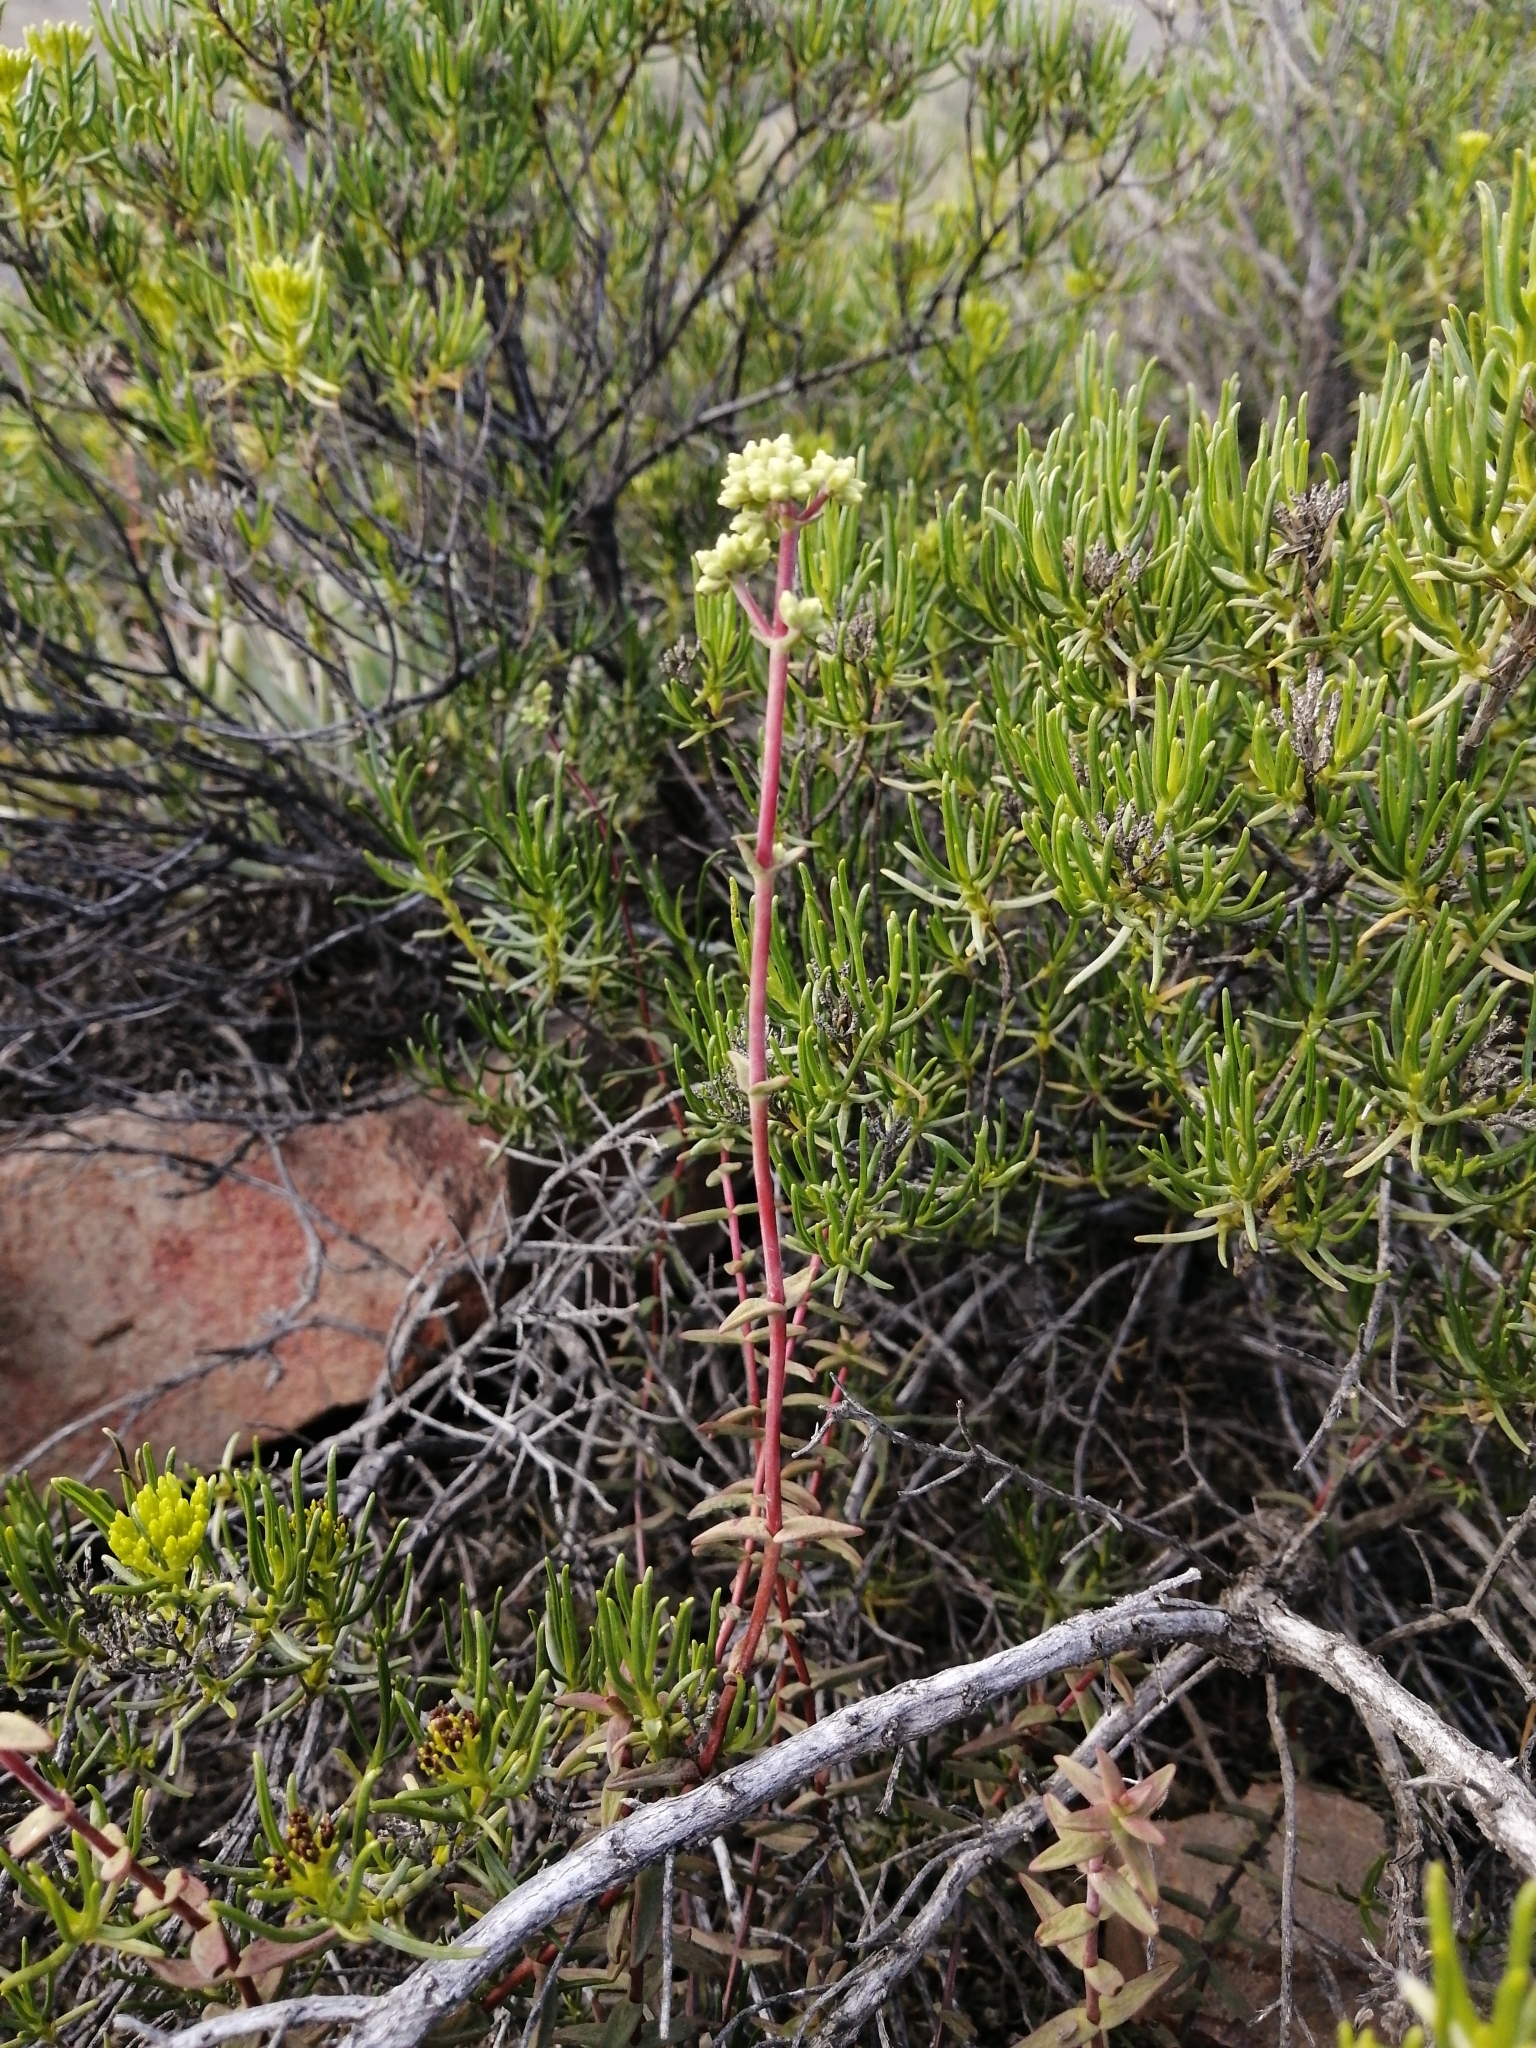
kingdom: Plantae
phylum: Tracheophyta
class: Magnoliopsida
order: Saxifragales
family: Crassulaceae
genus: Crassula
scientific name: Crassula subaphylla
